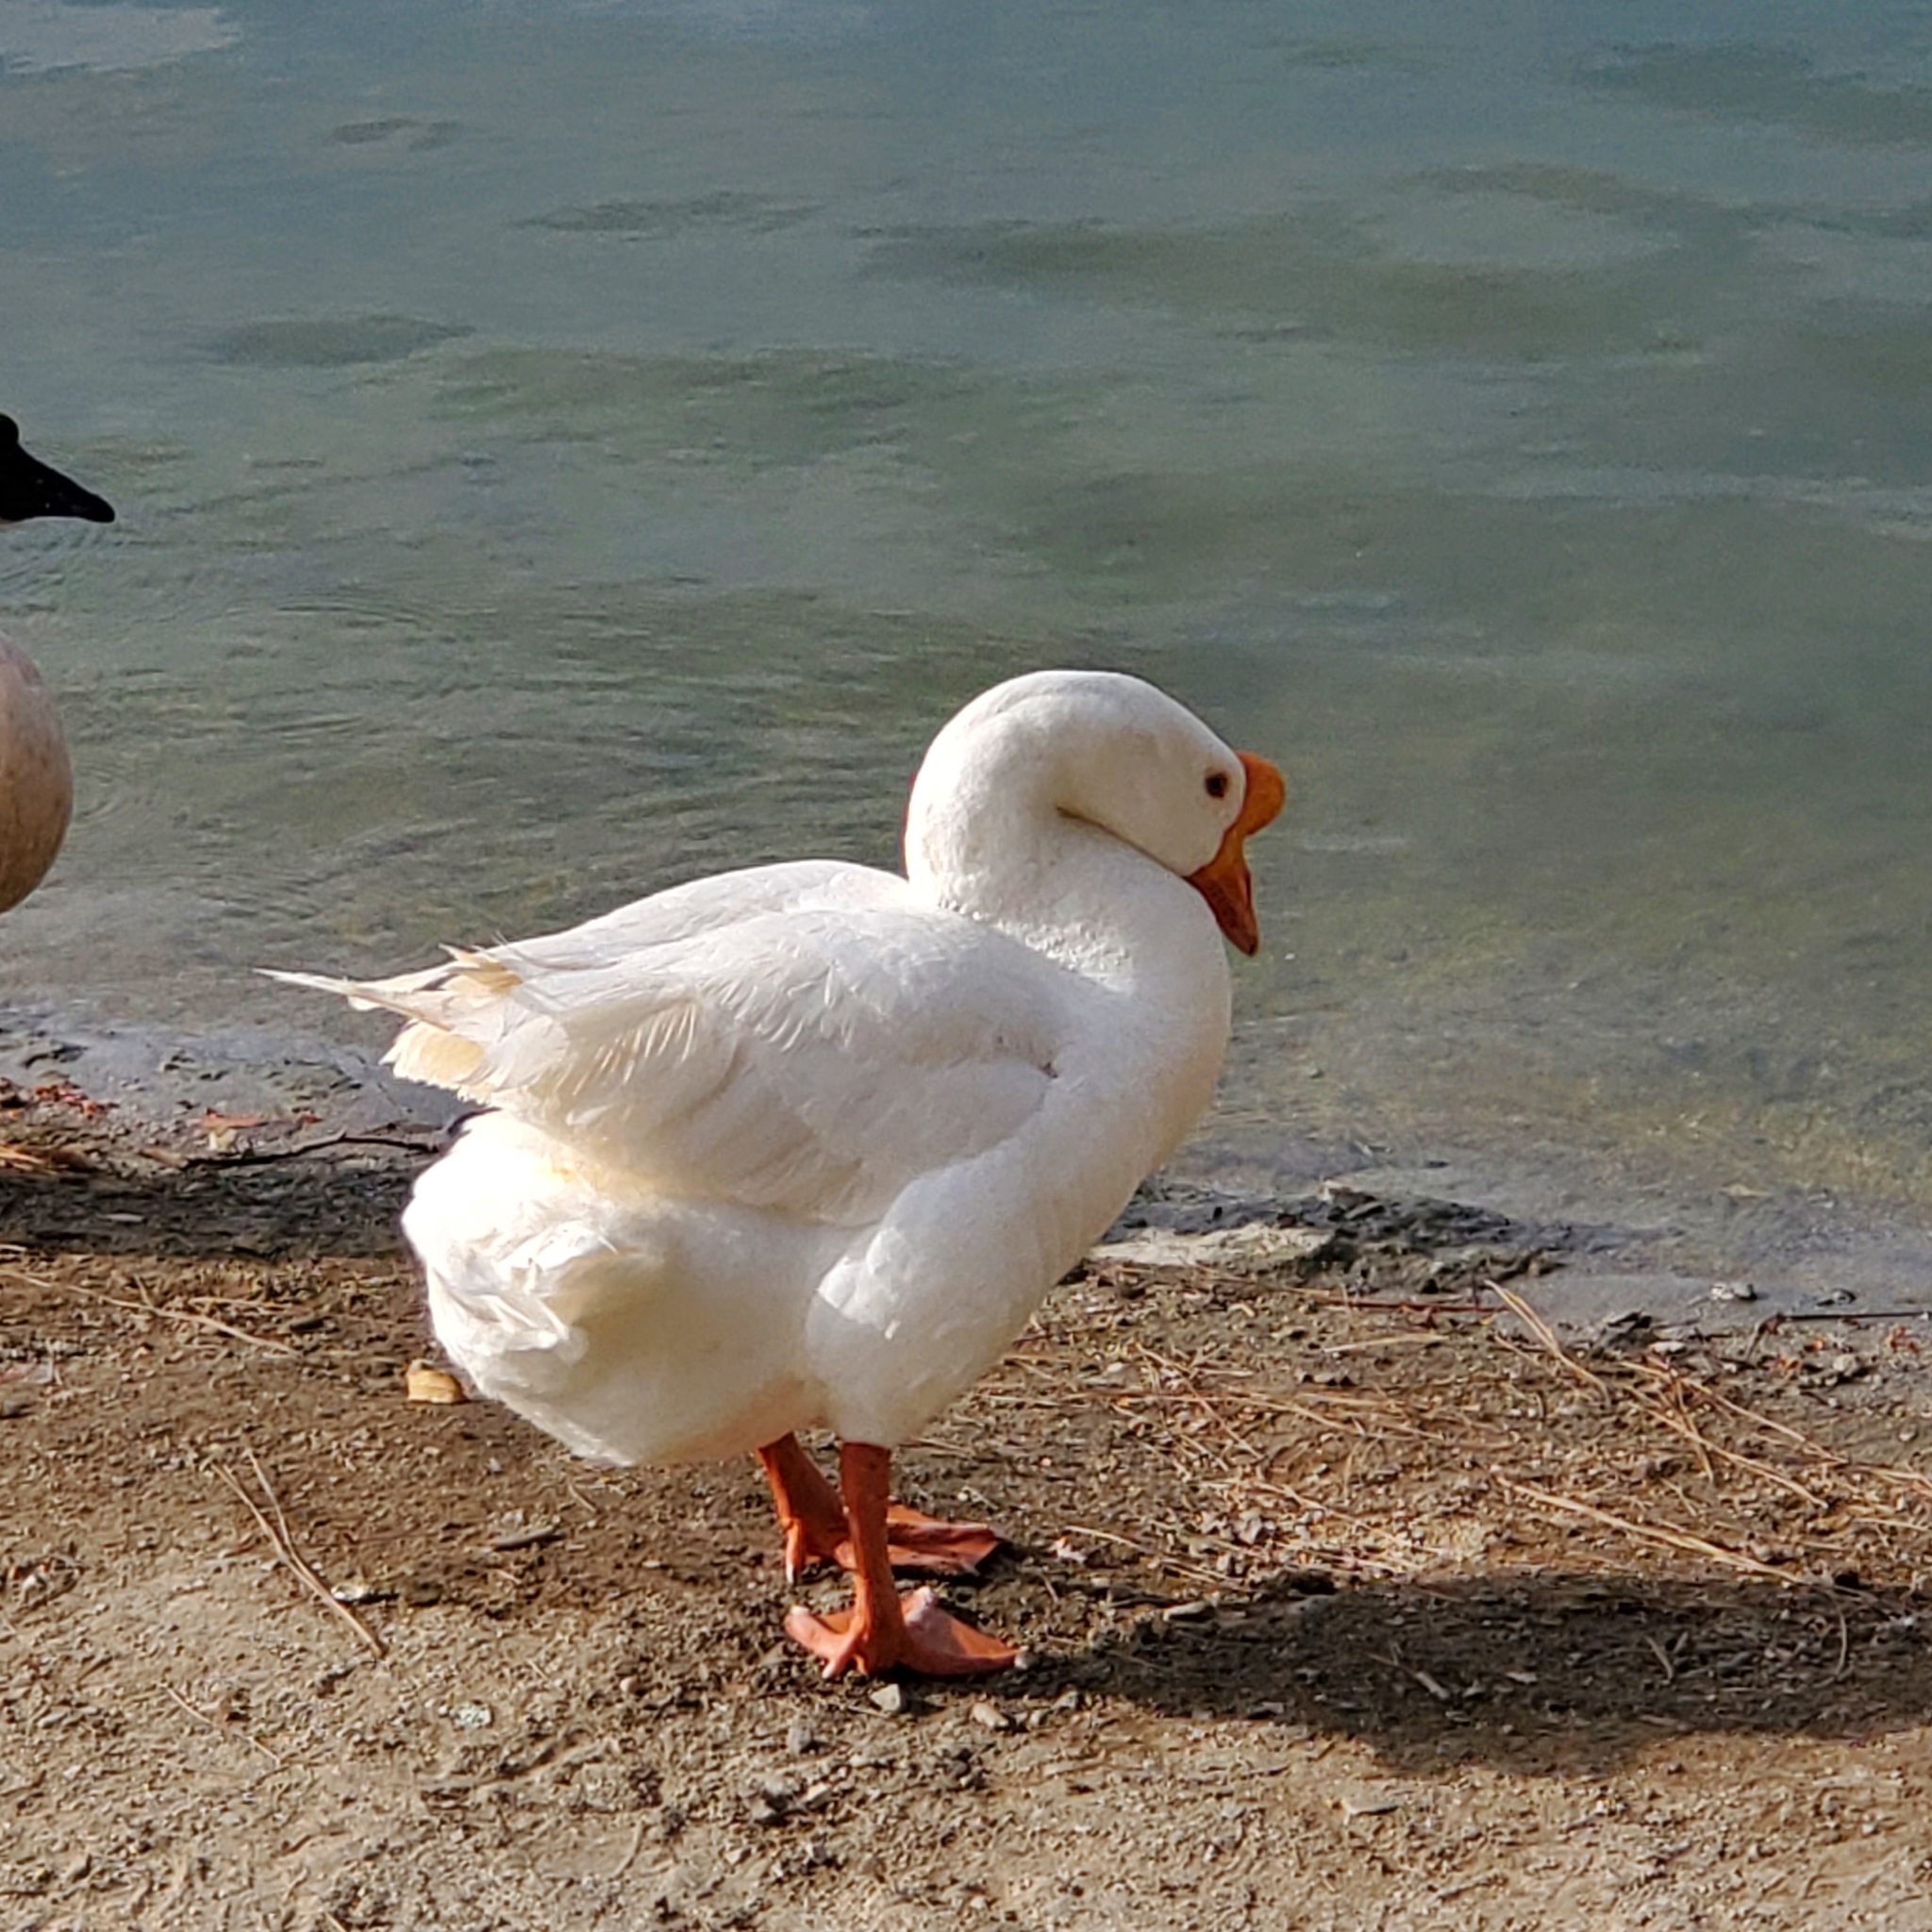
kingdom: Animalia
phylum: Chordata
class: Aves
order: Anseriformes
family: Anatidae
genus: Anser
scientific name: Anser cygnoides
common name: Swan goose
